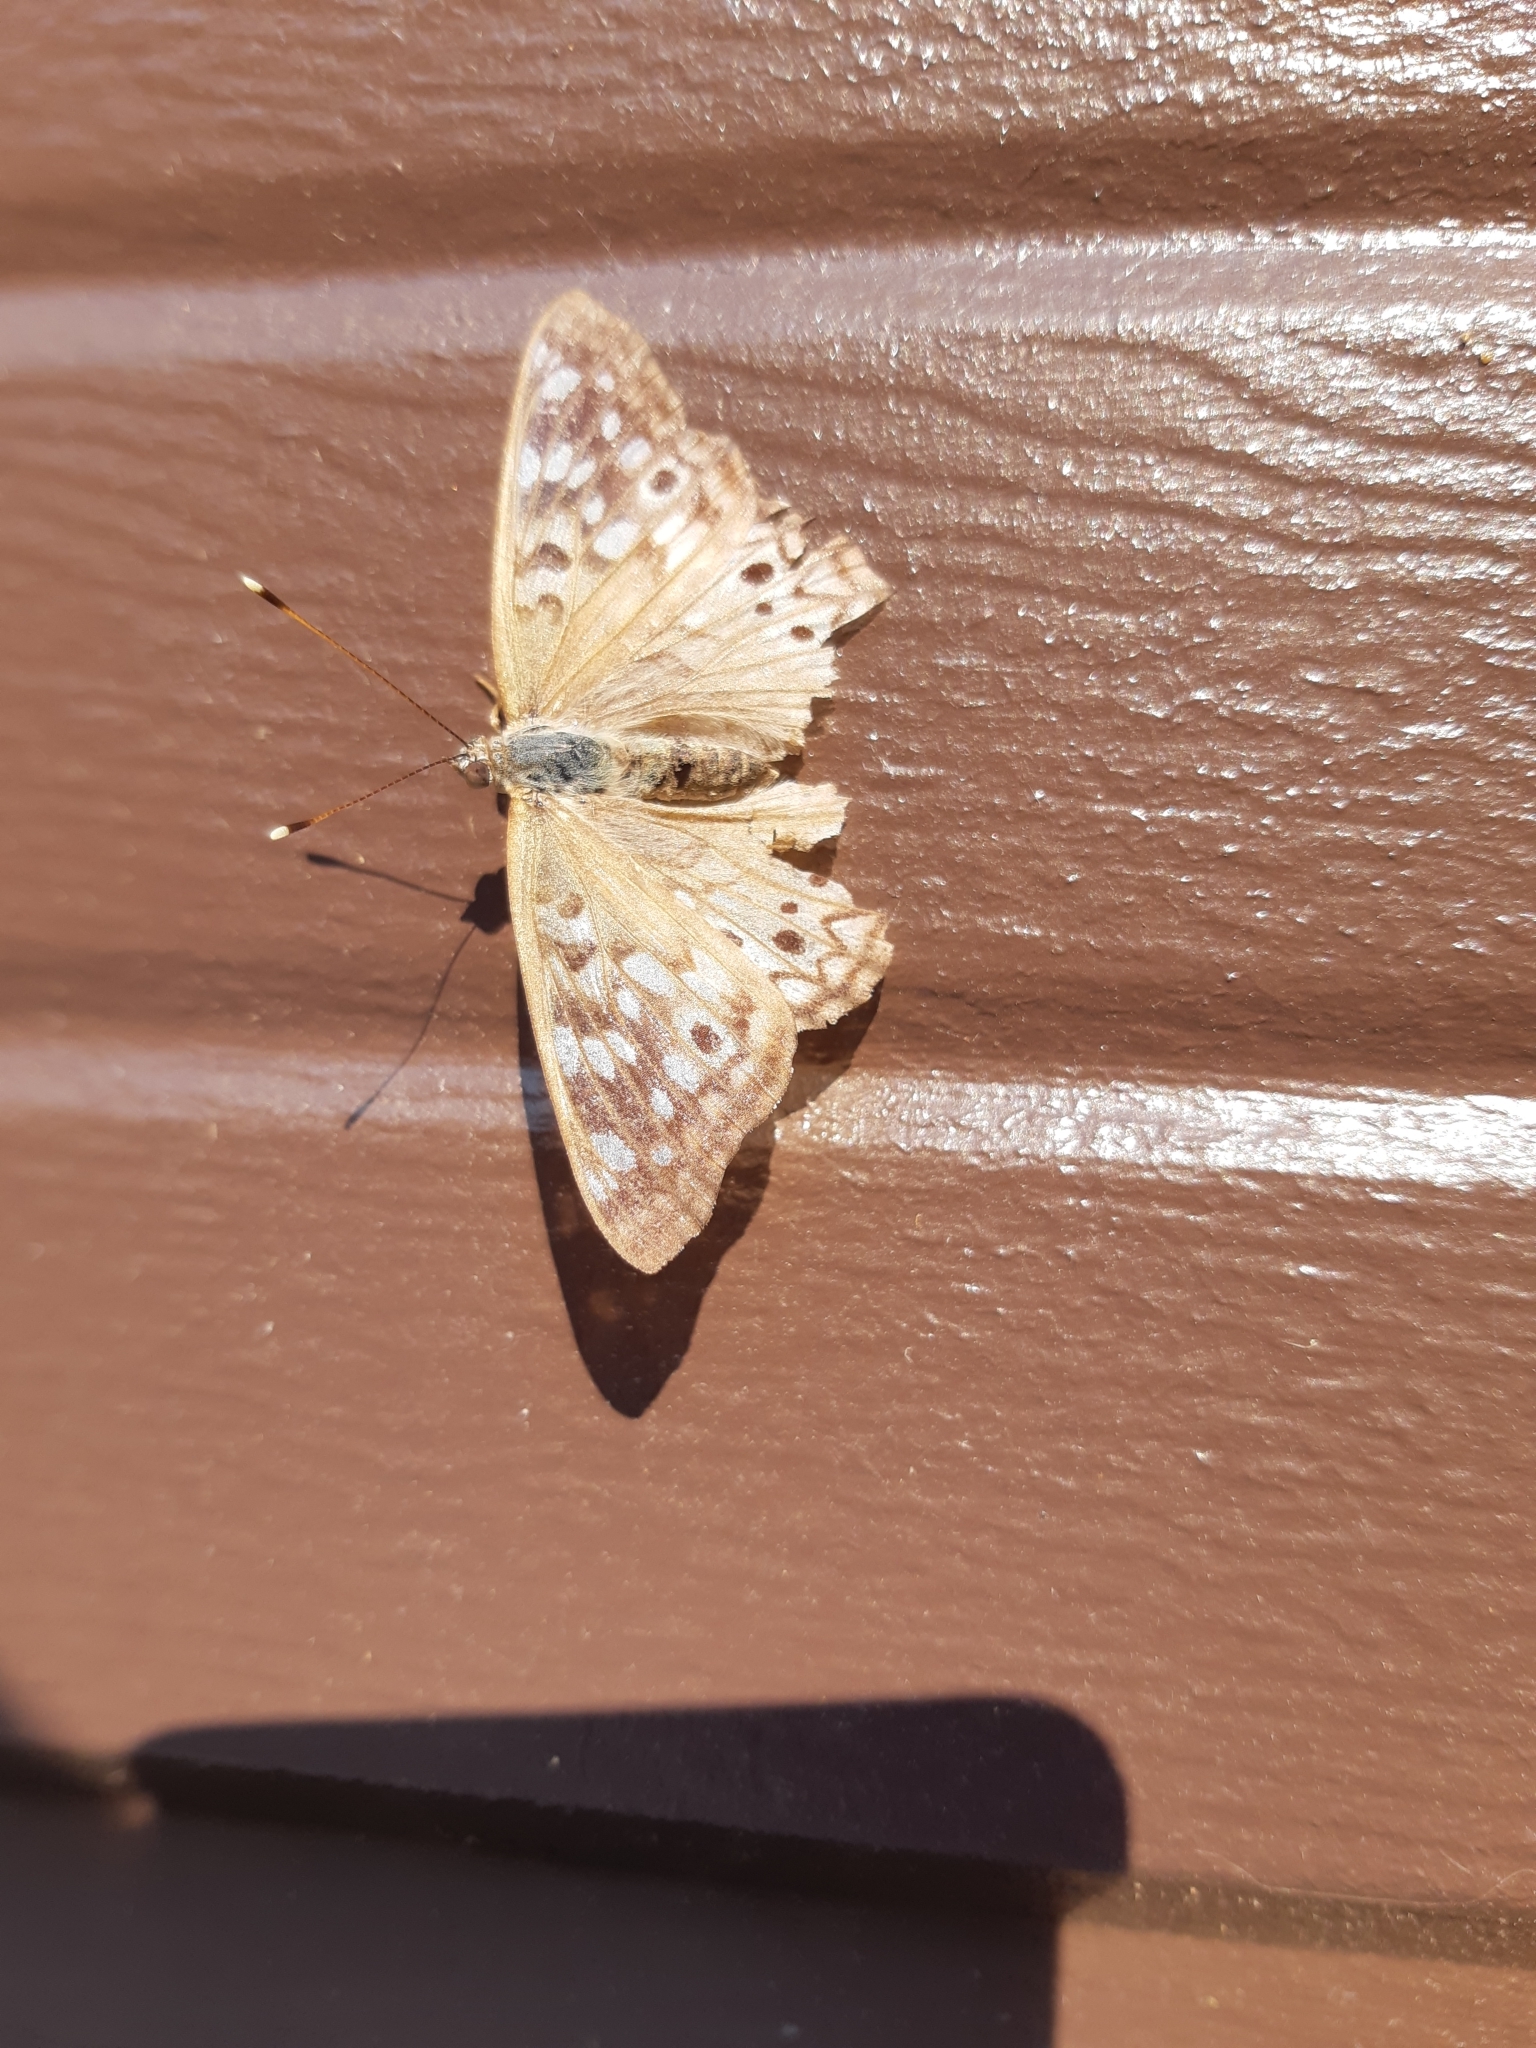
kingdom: Animalia
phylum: Arthropoda
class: Insecta
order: Lepidoptera
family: Nymphalidae
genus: Asterocampa
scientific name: Asterocampa celtis
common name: Hackberry emperor
